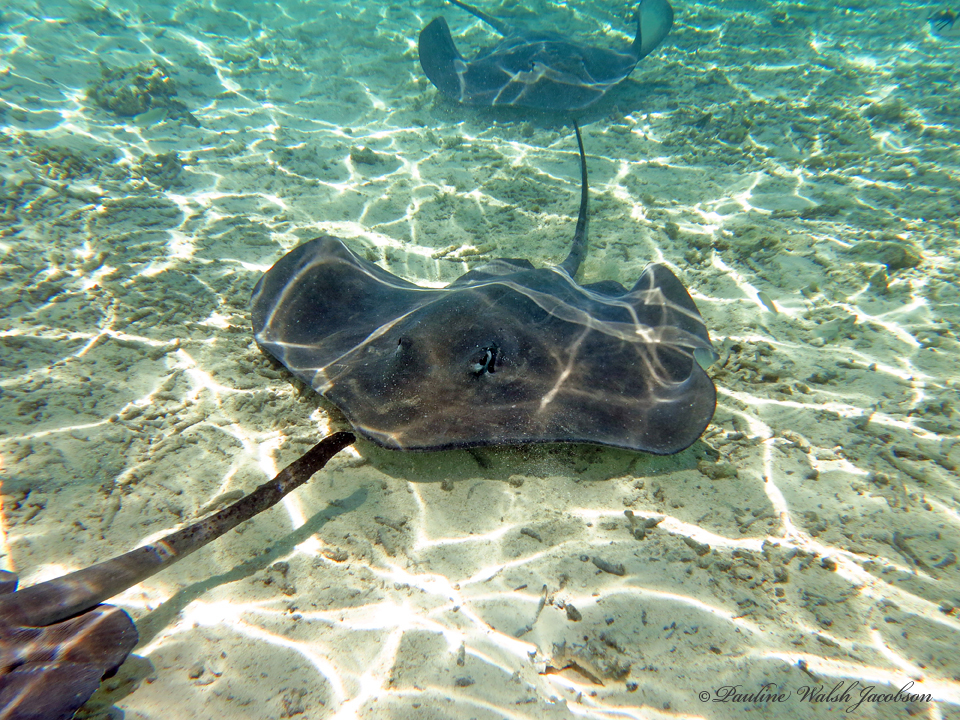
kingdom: Animalia
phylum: Chordata
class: Elasmobranchii
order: Myliobatiformes
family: Dasyatidae
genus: Pateobatis
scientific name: Pateobatis fai
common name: Pink whipray
